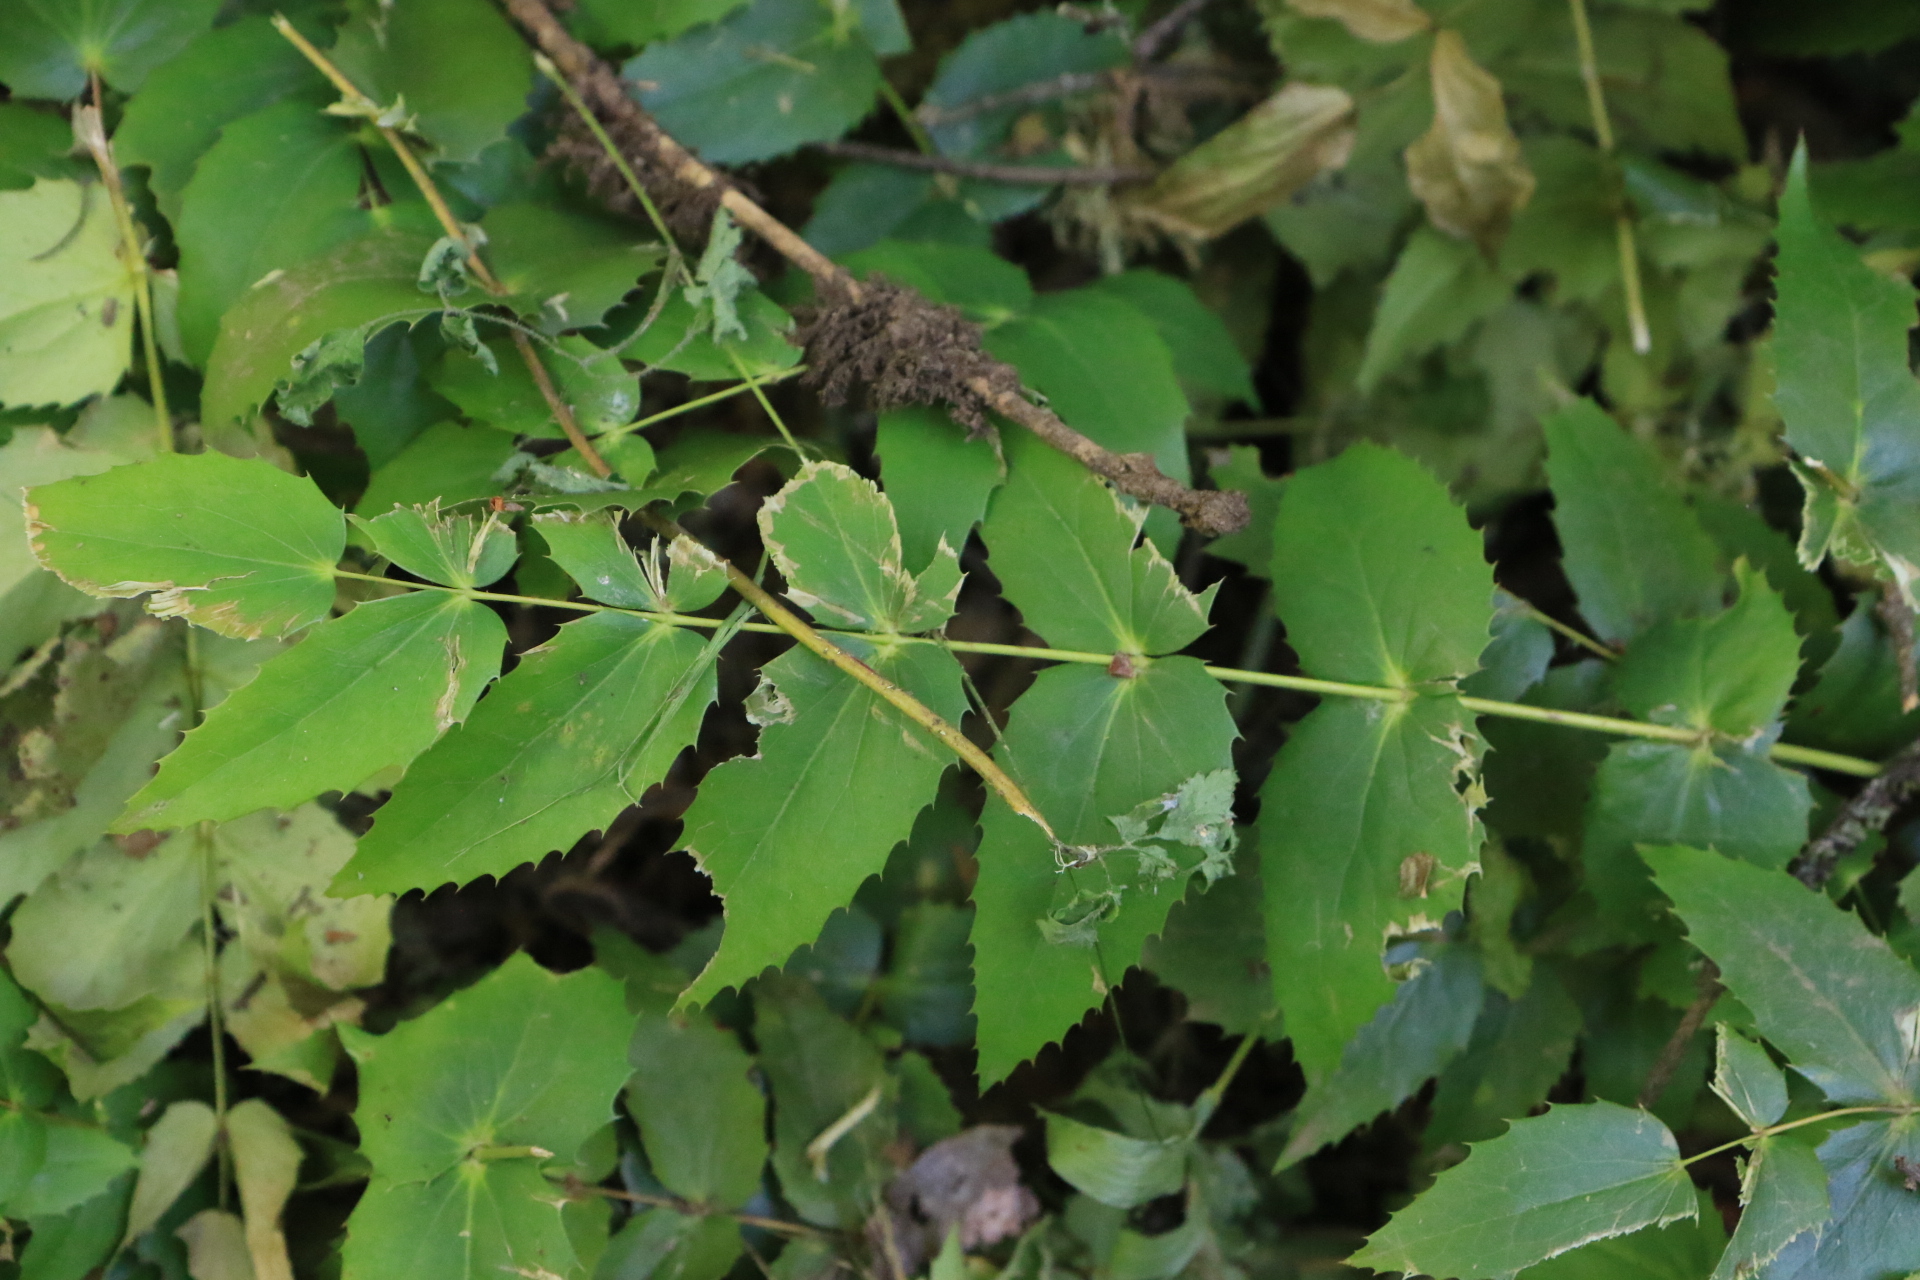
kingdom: Plantae
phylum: Tracheophyta
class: Magnoliopsida
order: Ranunculales
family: Berberidaceae
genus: Mahonia
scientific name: Mahonia nervosa
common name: Cascade oregon-grape
